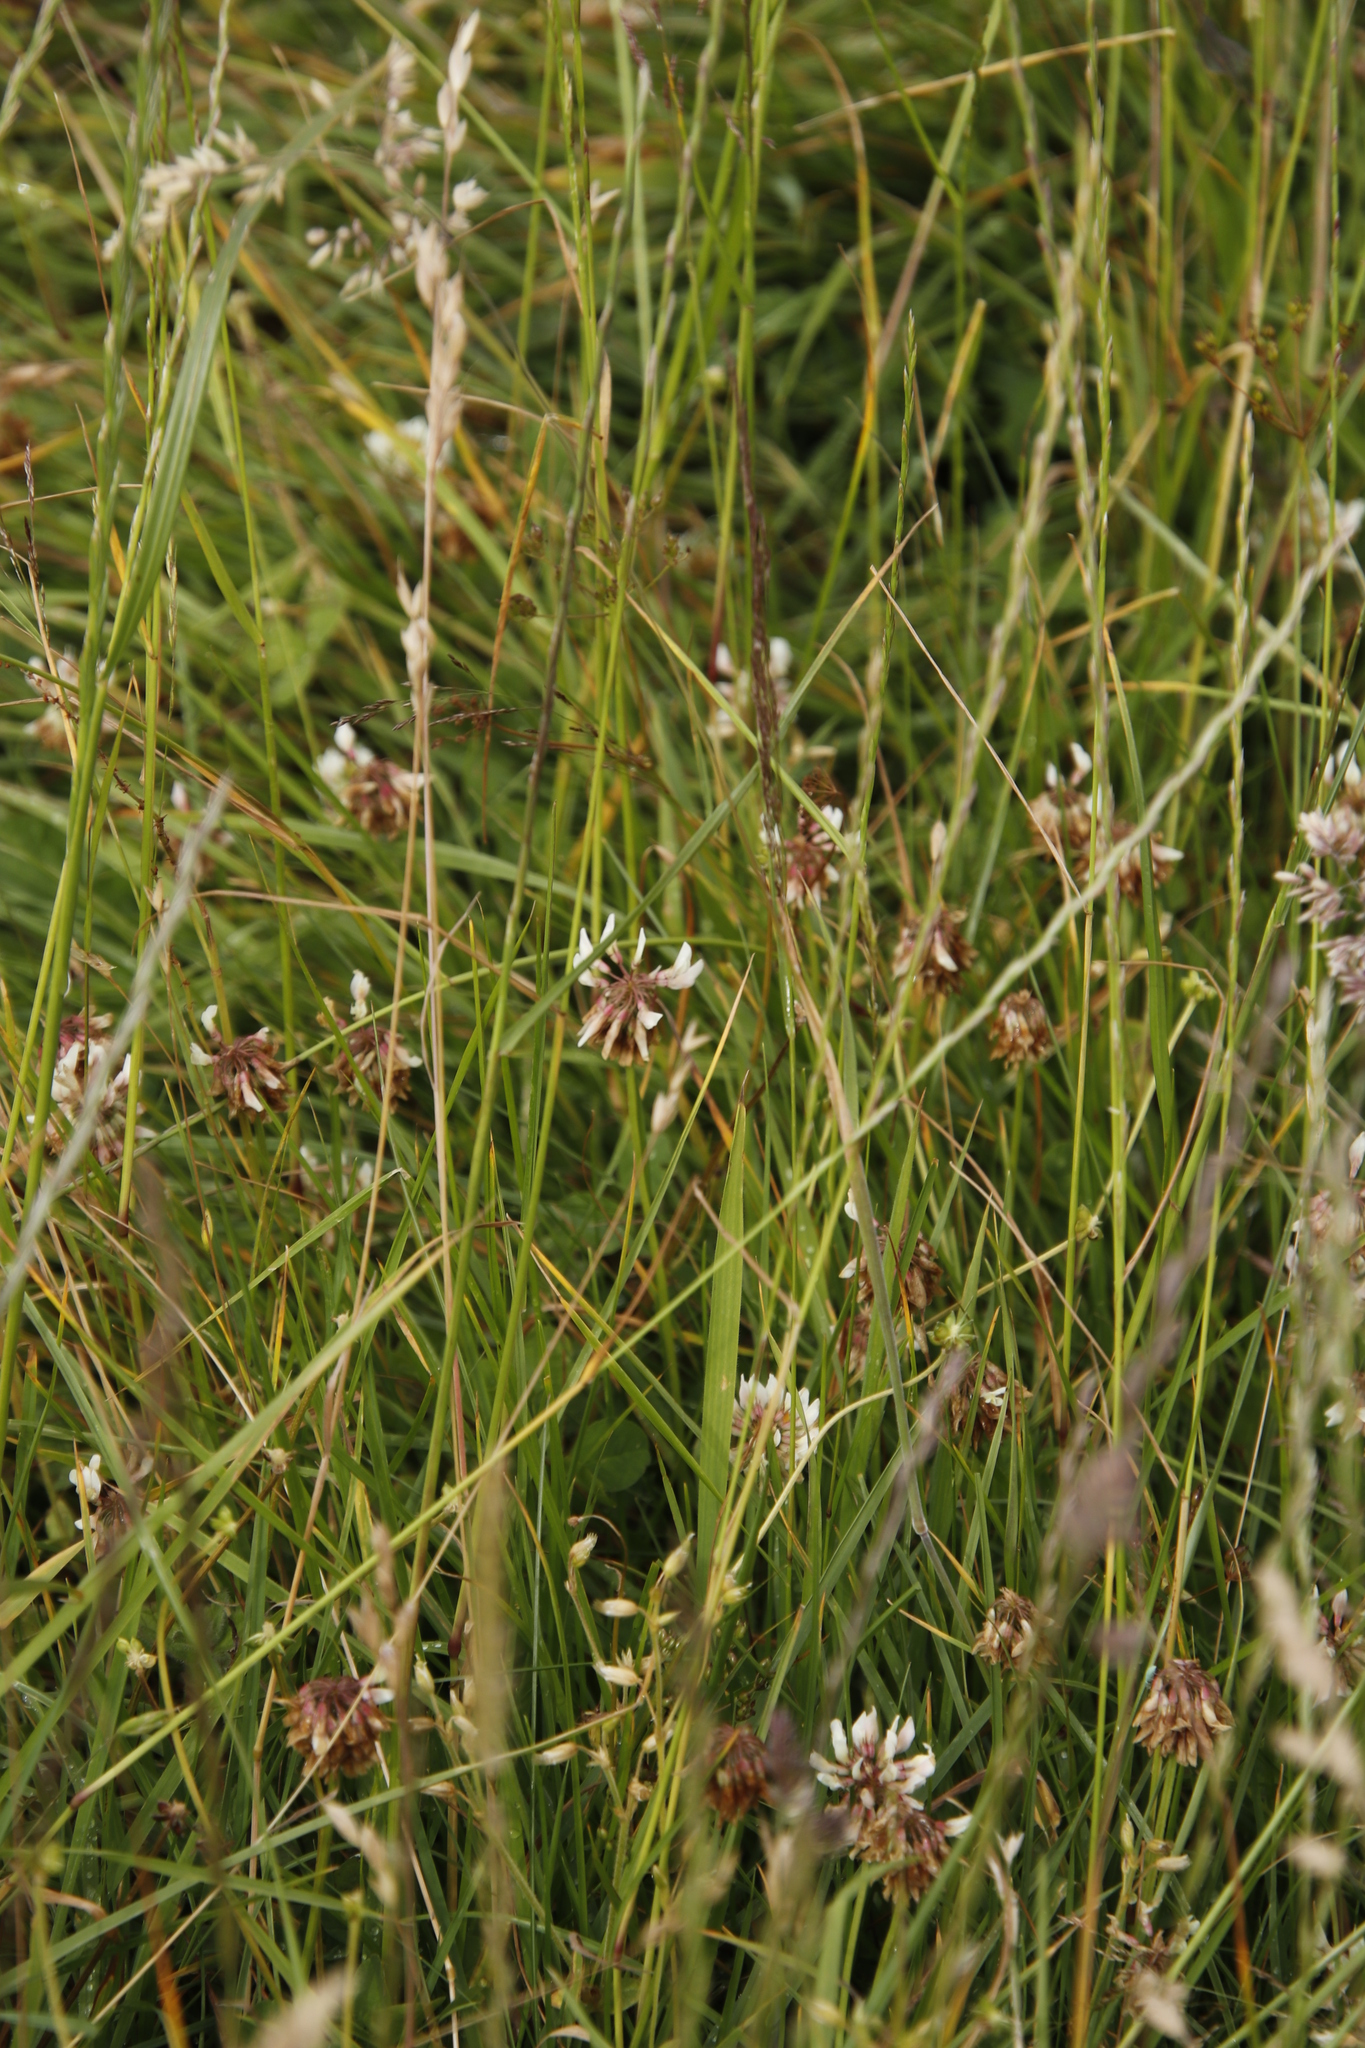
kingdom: Plantae
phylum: Tracheophyta
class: Magnoliopsida
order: Fabales
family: Fabaceae
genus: Trifolium
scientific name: Trifolium repens
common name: White clover
